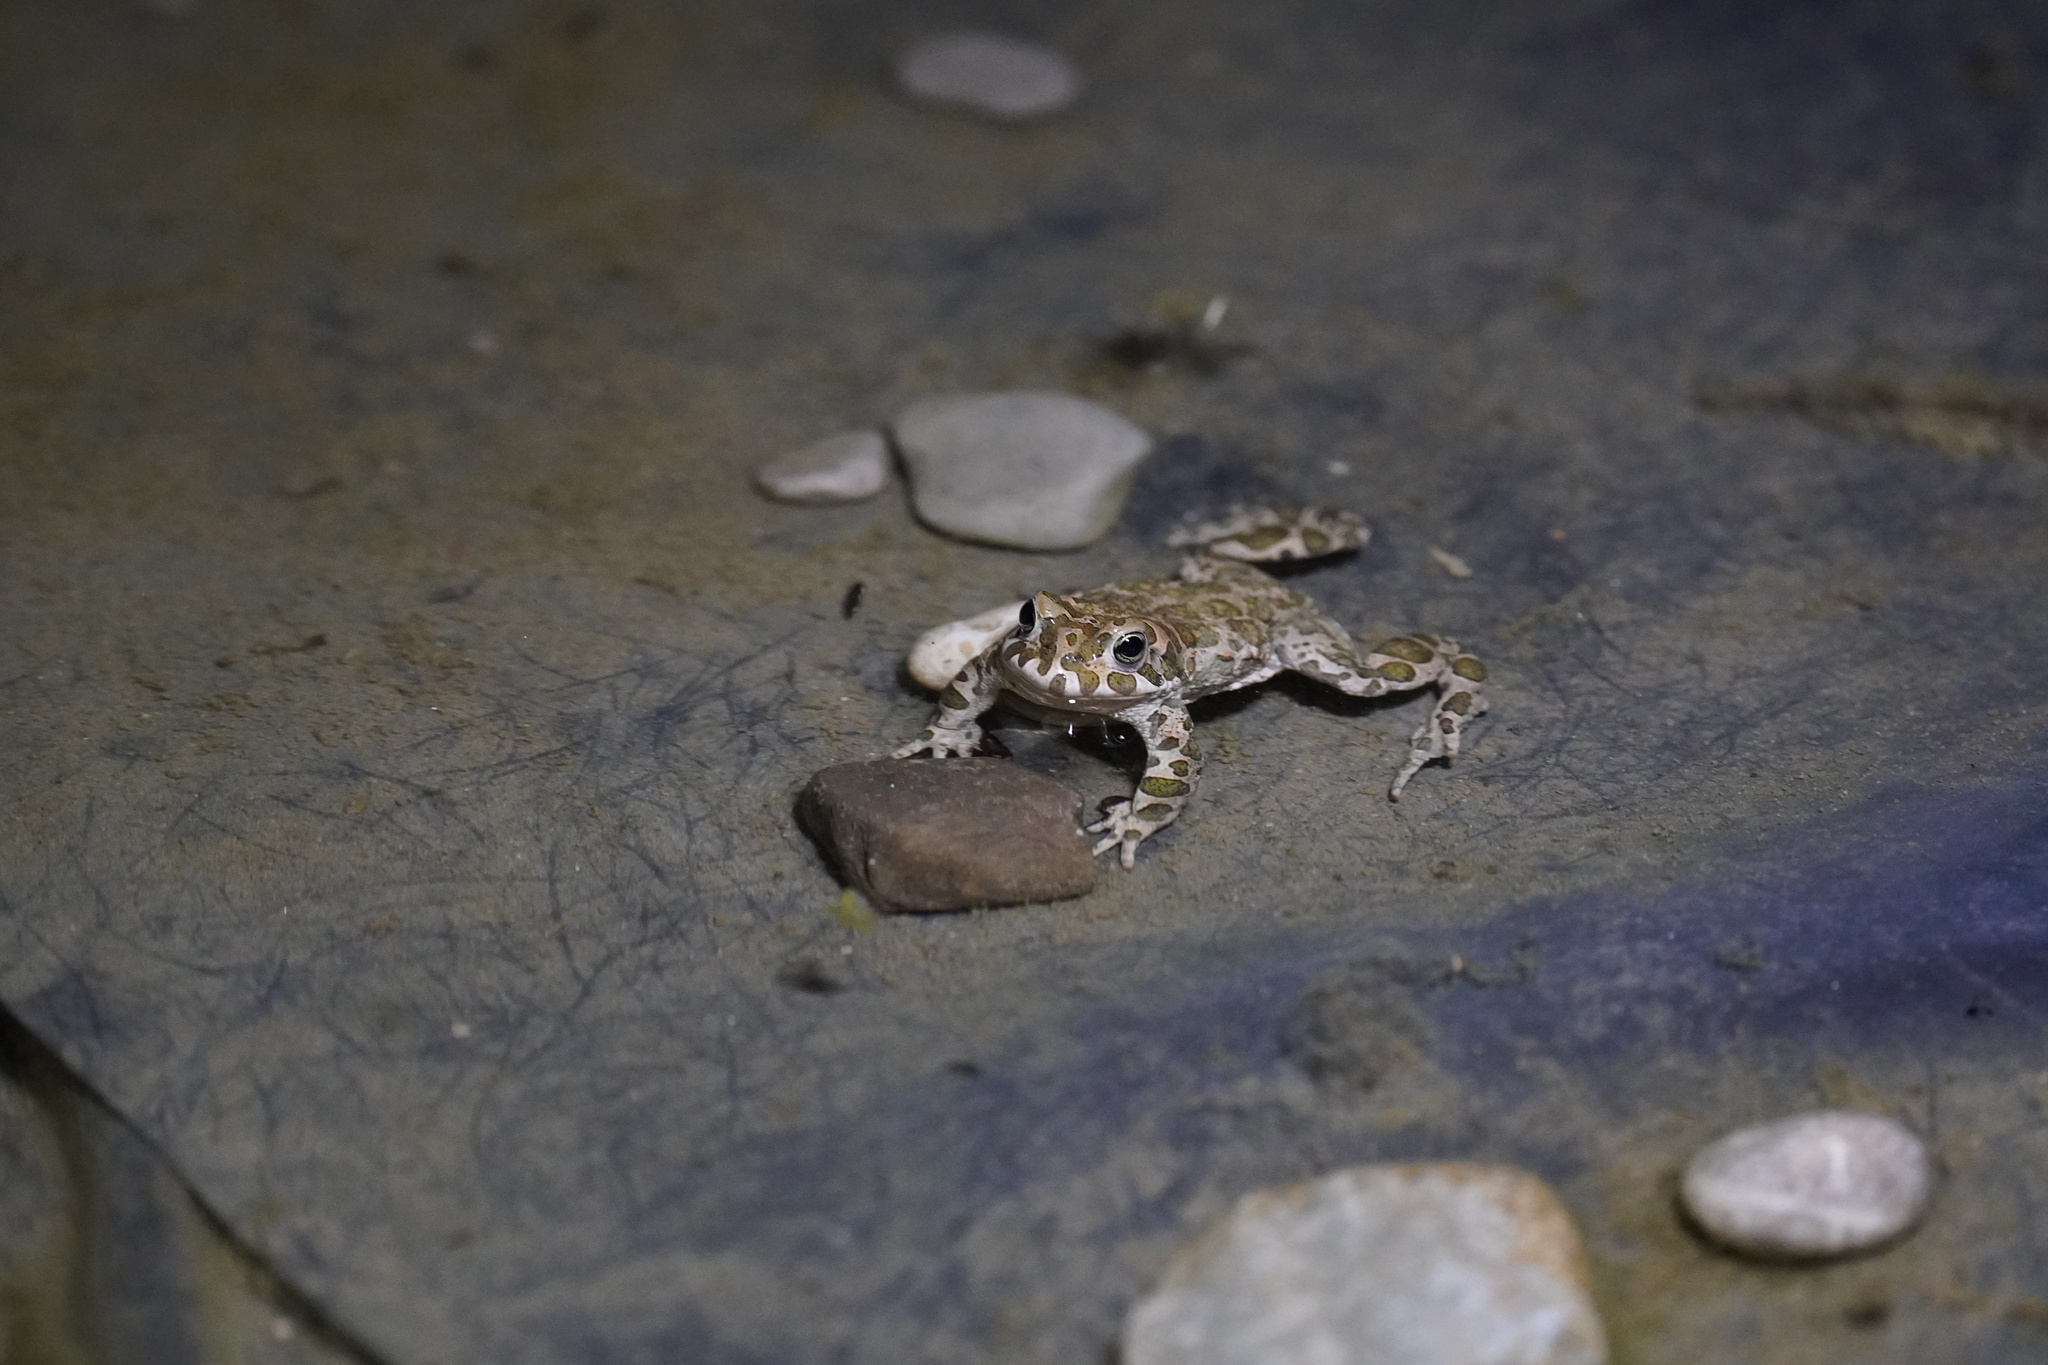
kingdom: Animalia
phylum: Chordata
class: Amphibia
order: Anura
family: Bufonidae
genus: Bufotes
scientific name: Bufotes viridis
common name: European green toad
